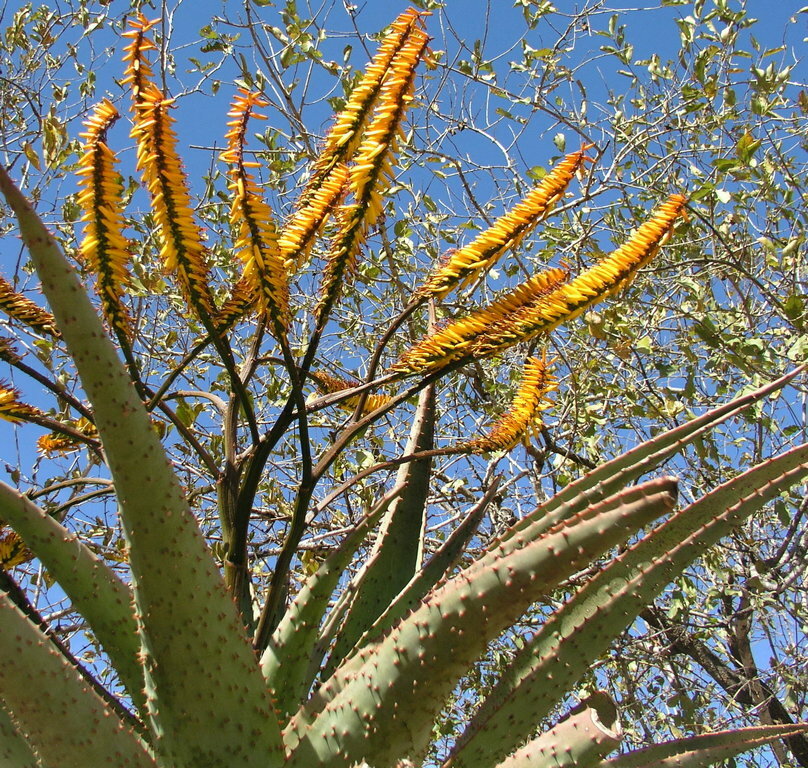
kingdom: Plantae
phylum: Tracheophyta
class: Liliopsida
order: Asparagales
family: Asphodelaceae
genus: Aloe
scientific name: Aloe marlothii
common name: Flat-flowered aloe
